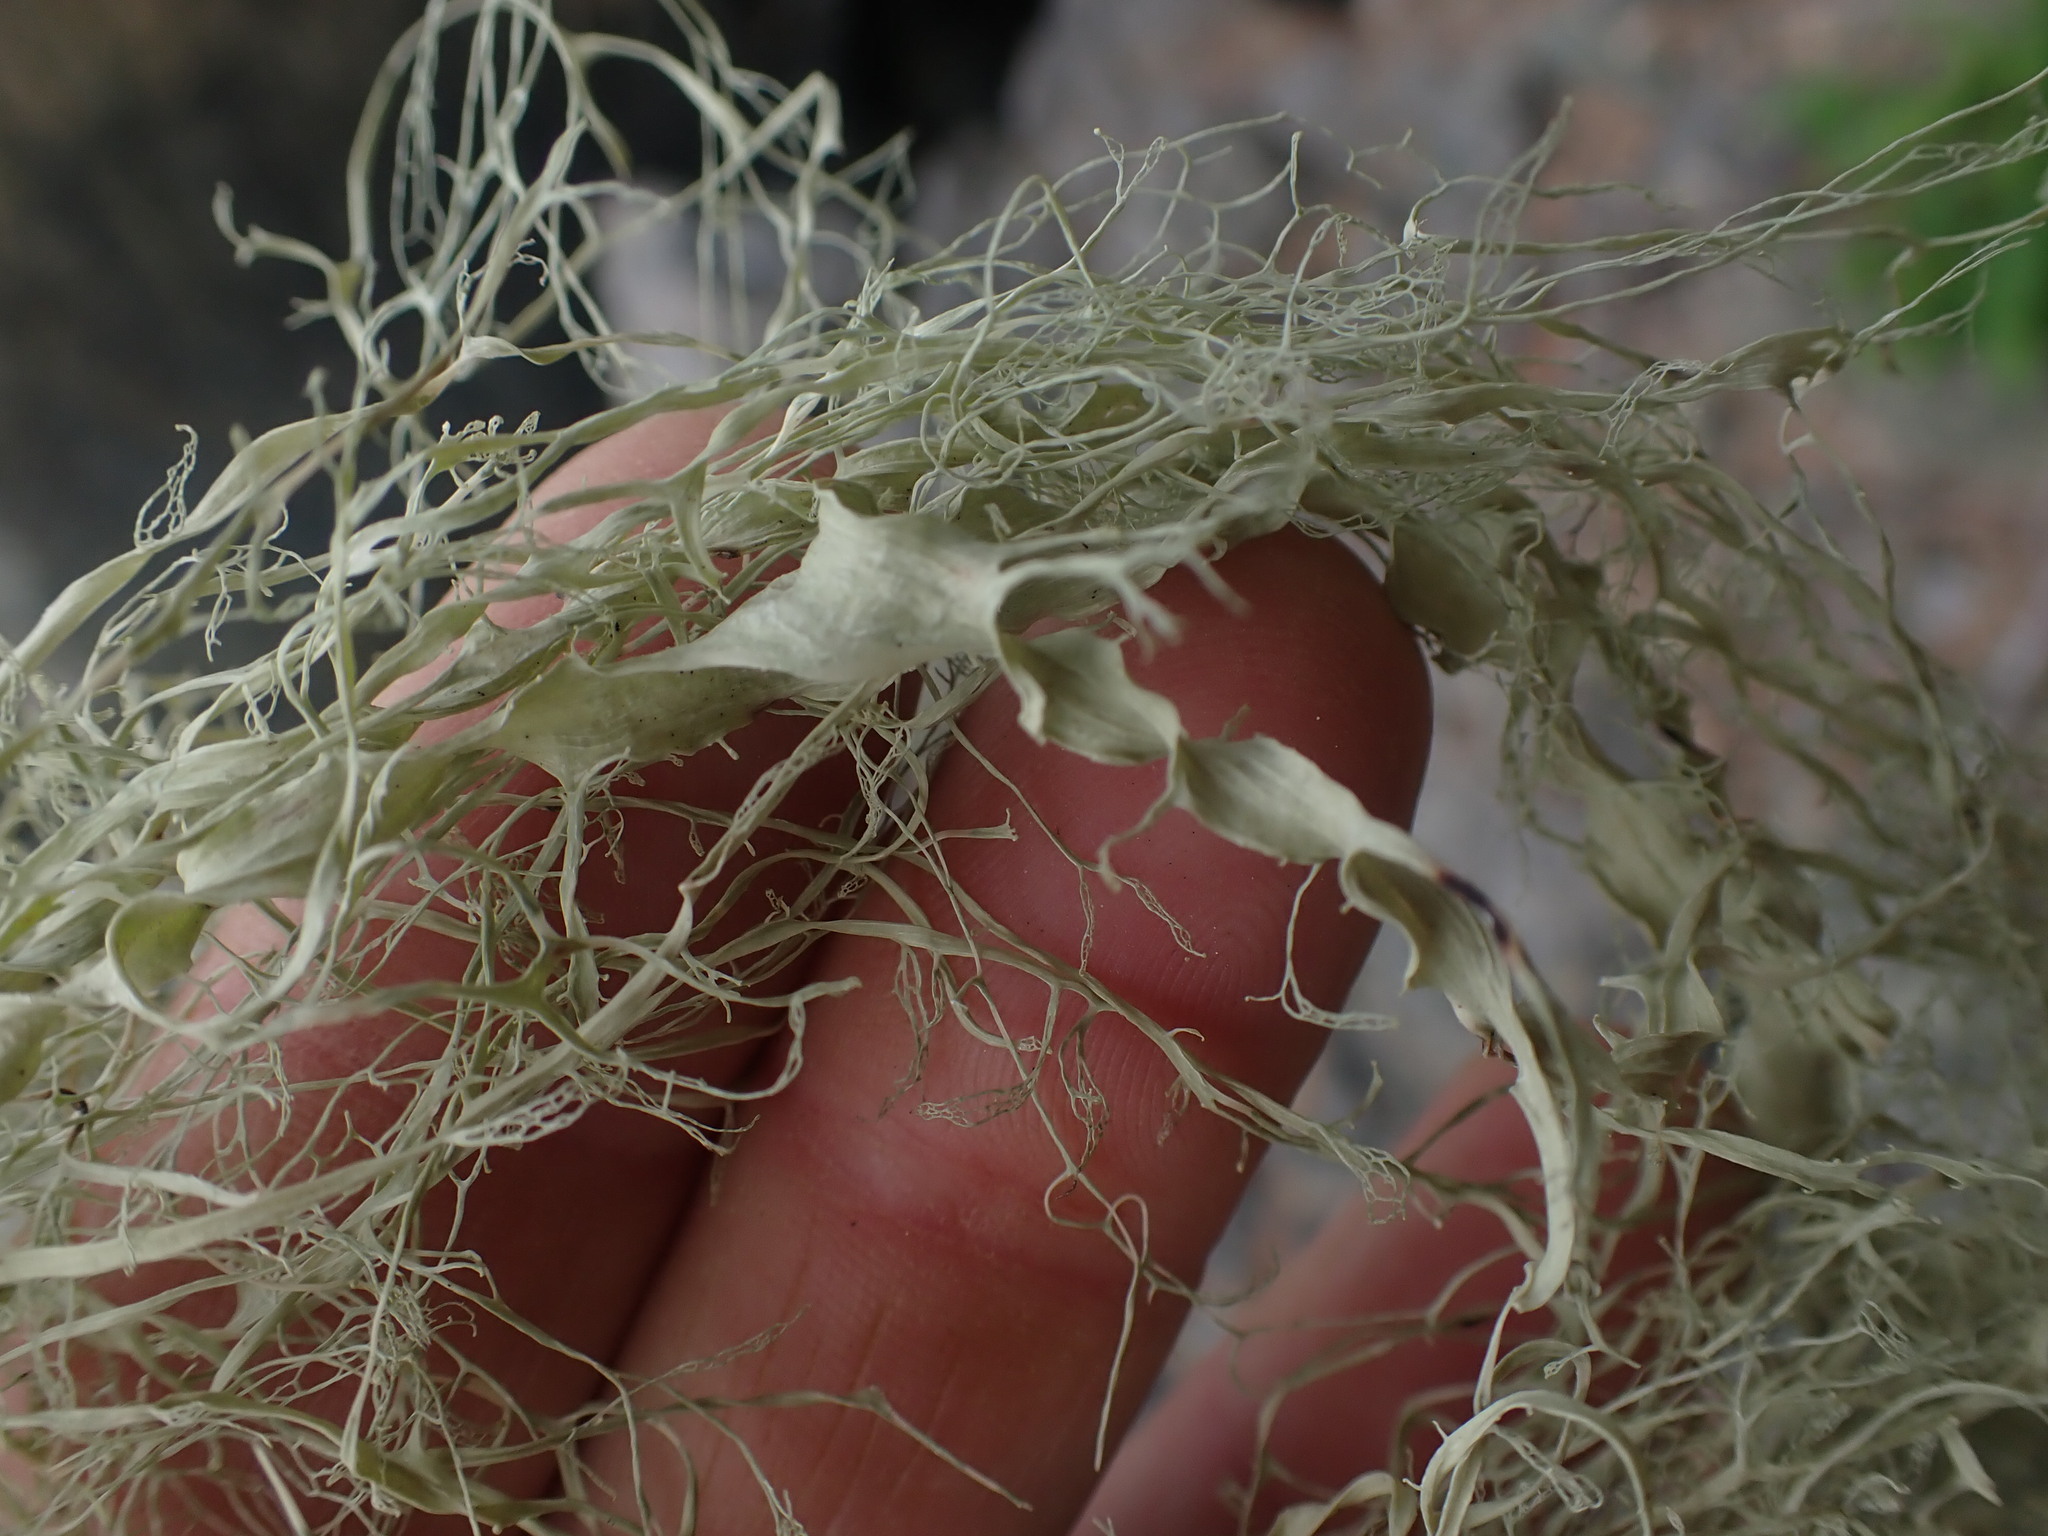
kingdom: Fungi
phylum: Ascomycota
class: Lecanoromycetes
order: Lecanorales
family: Ramalinaceae
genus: Ramalina
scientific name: Ramalina menziesii
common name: Lace lichen
